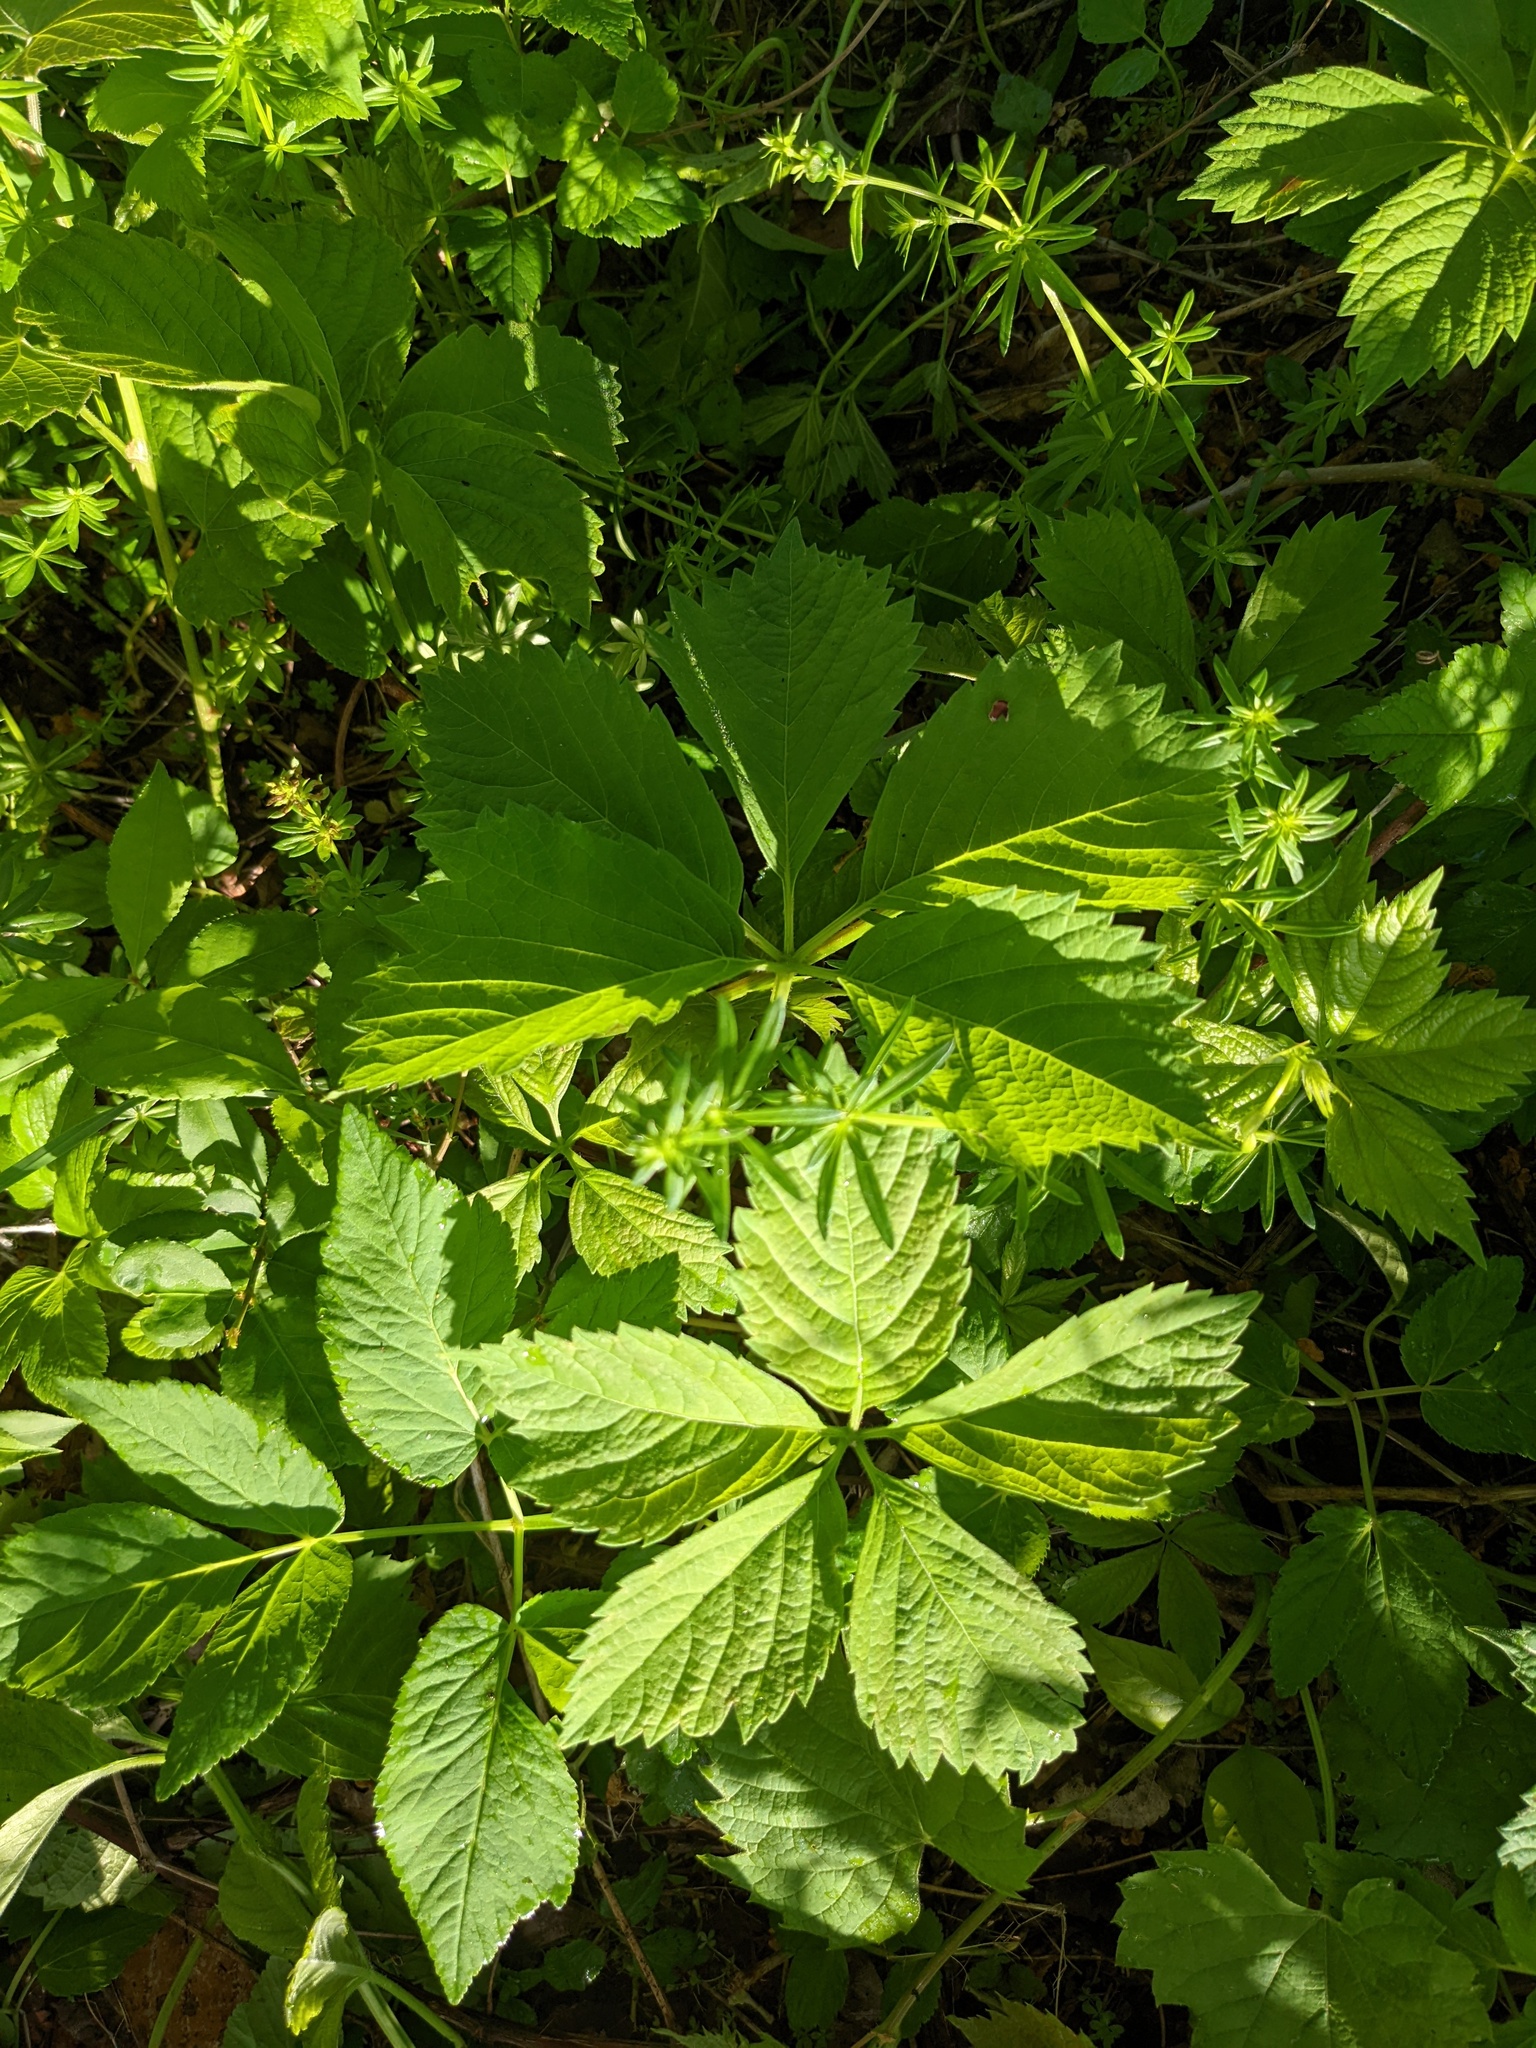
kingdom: Plantae
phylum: Tracheophyta
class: Magnoliopsida
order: Vitales
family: Vitaceae
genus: Parthenocissus
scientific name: Parthenocissus quinquefolia
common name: Virginia-creeper
